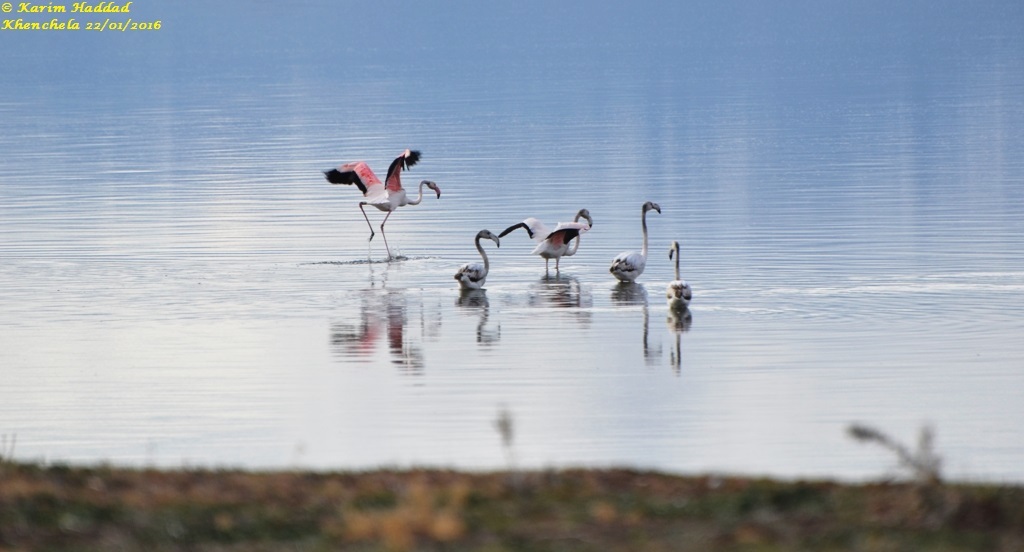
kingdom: Animalia
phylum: Chordata
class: Aves
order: Phoenicopteriformes
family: Phoenicopteridae
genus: Phoenicopterus
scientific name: Phoenicopterus roseus
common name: Greater flamingo
